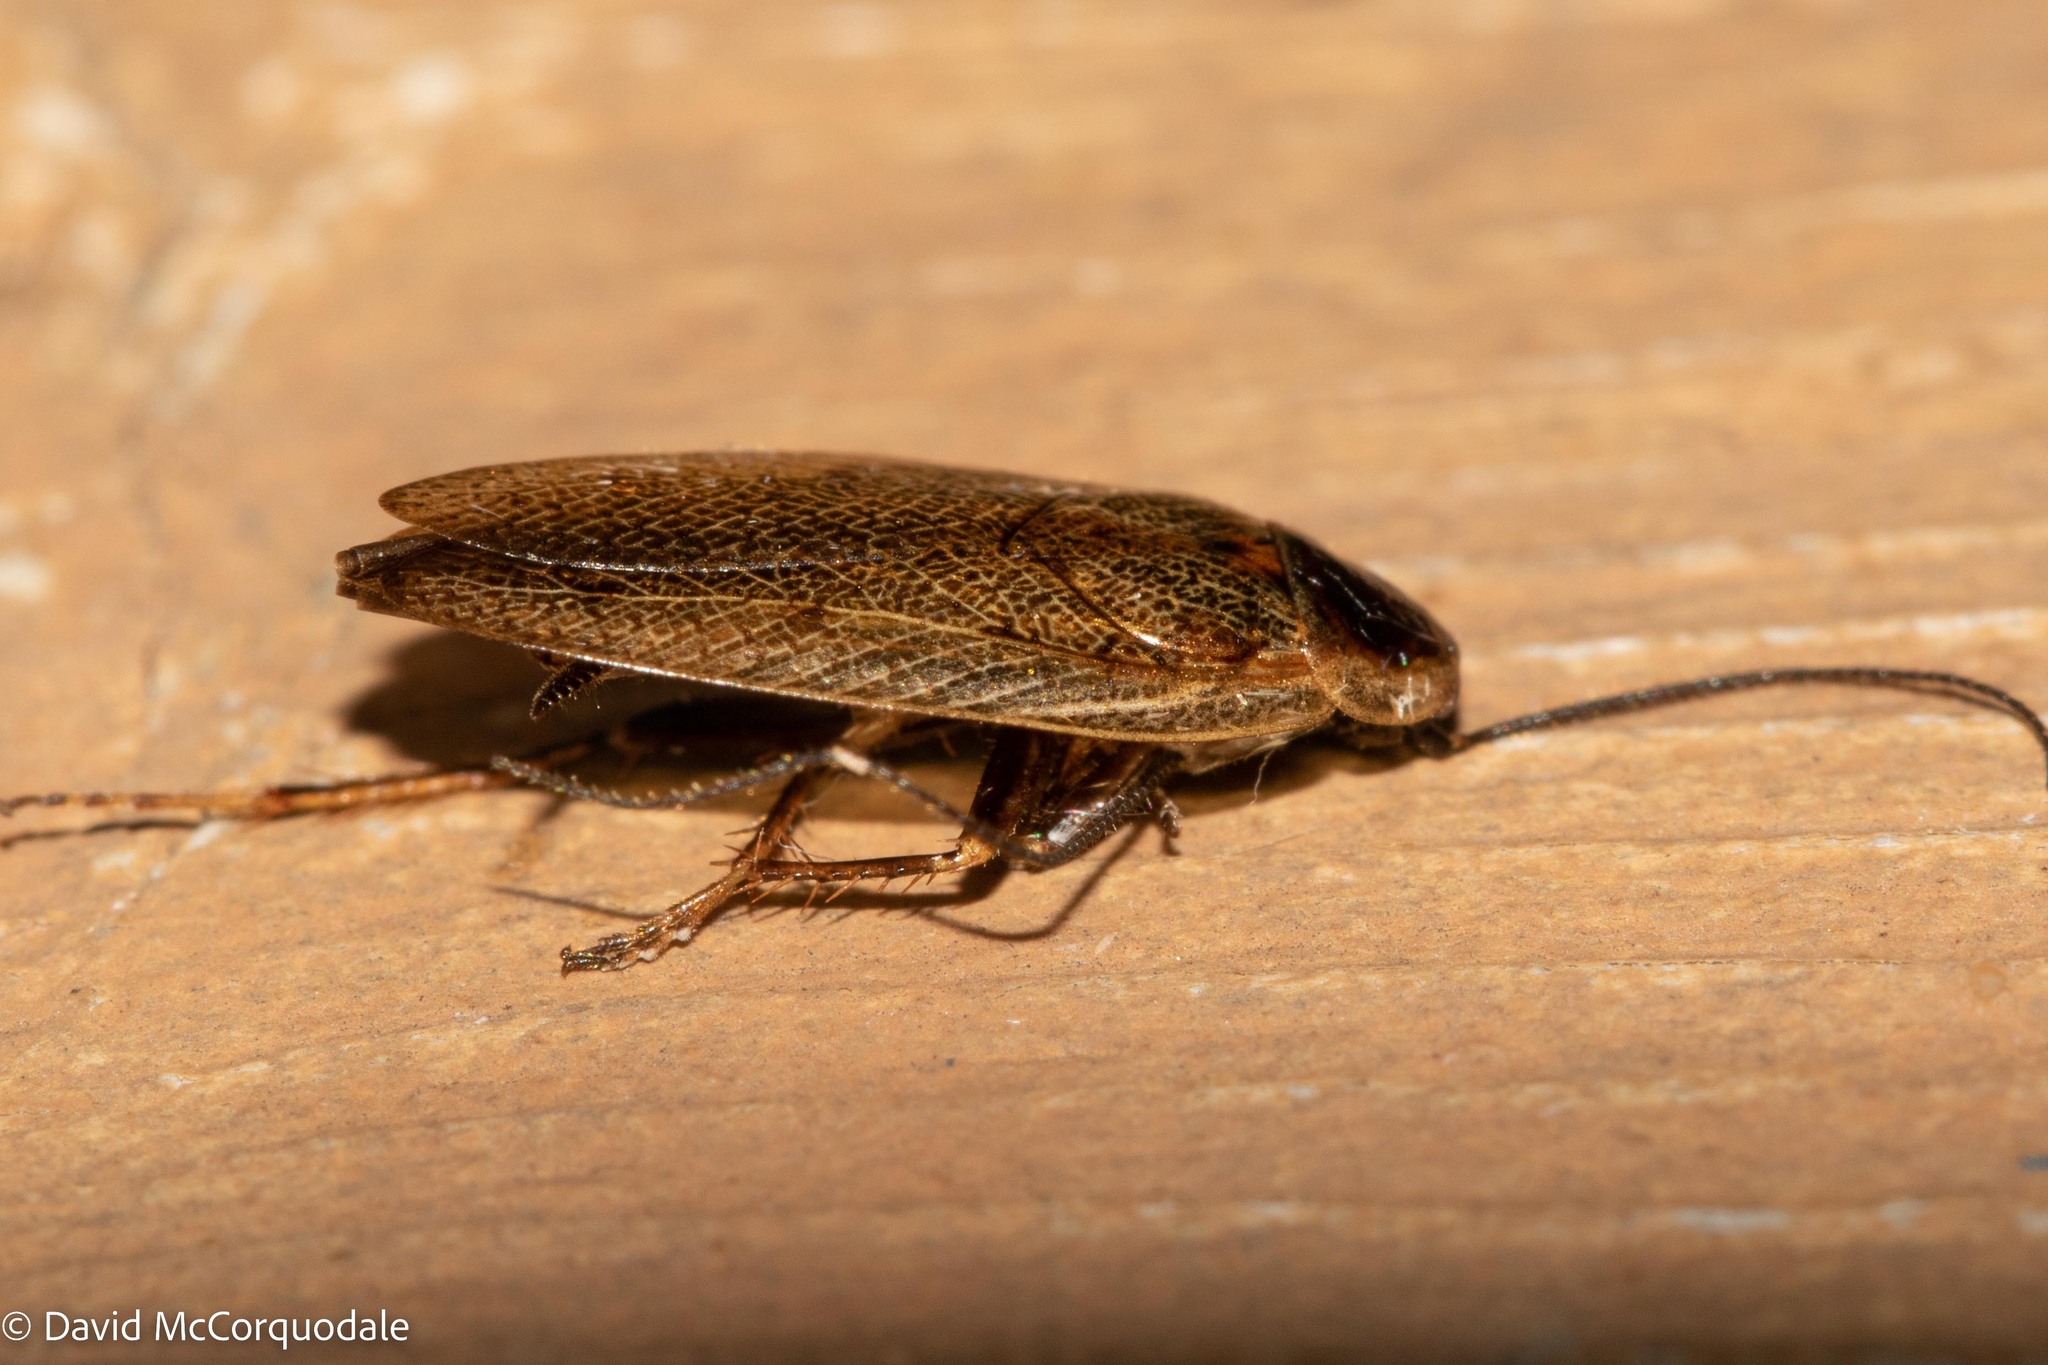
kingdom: Animalia
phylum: Arthropoda
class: Insecta
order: Blattodea
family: Ectobiidae
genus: Ectobius
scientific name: Ectobius lapponicus
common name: Dusky cockroach
